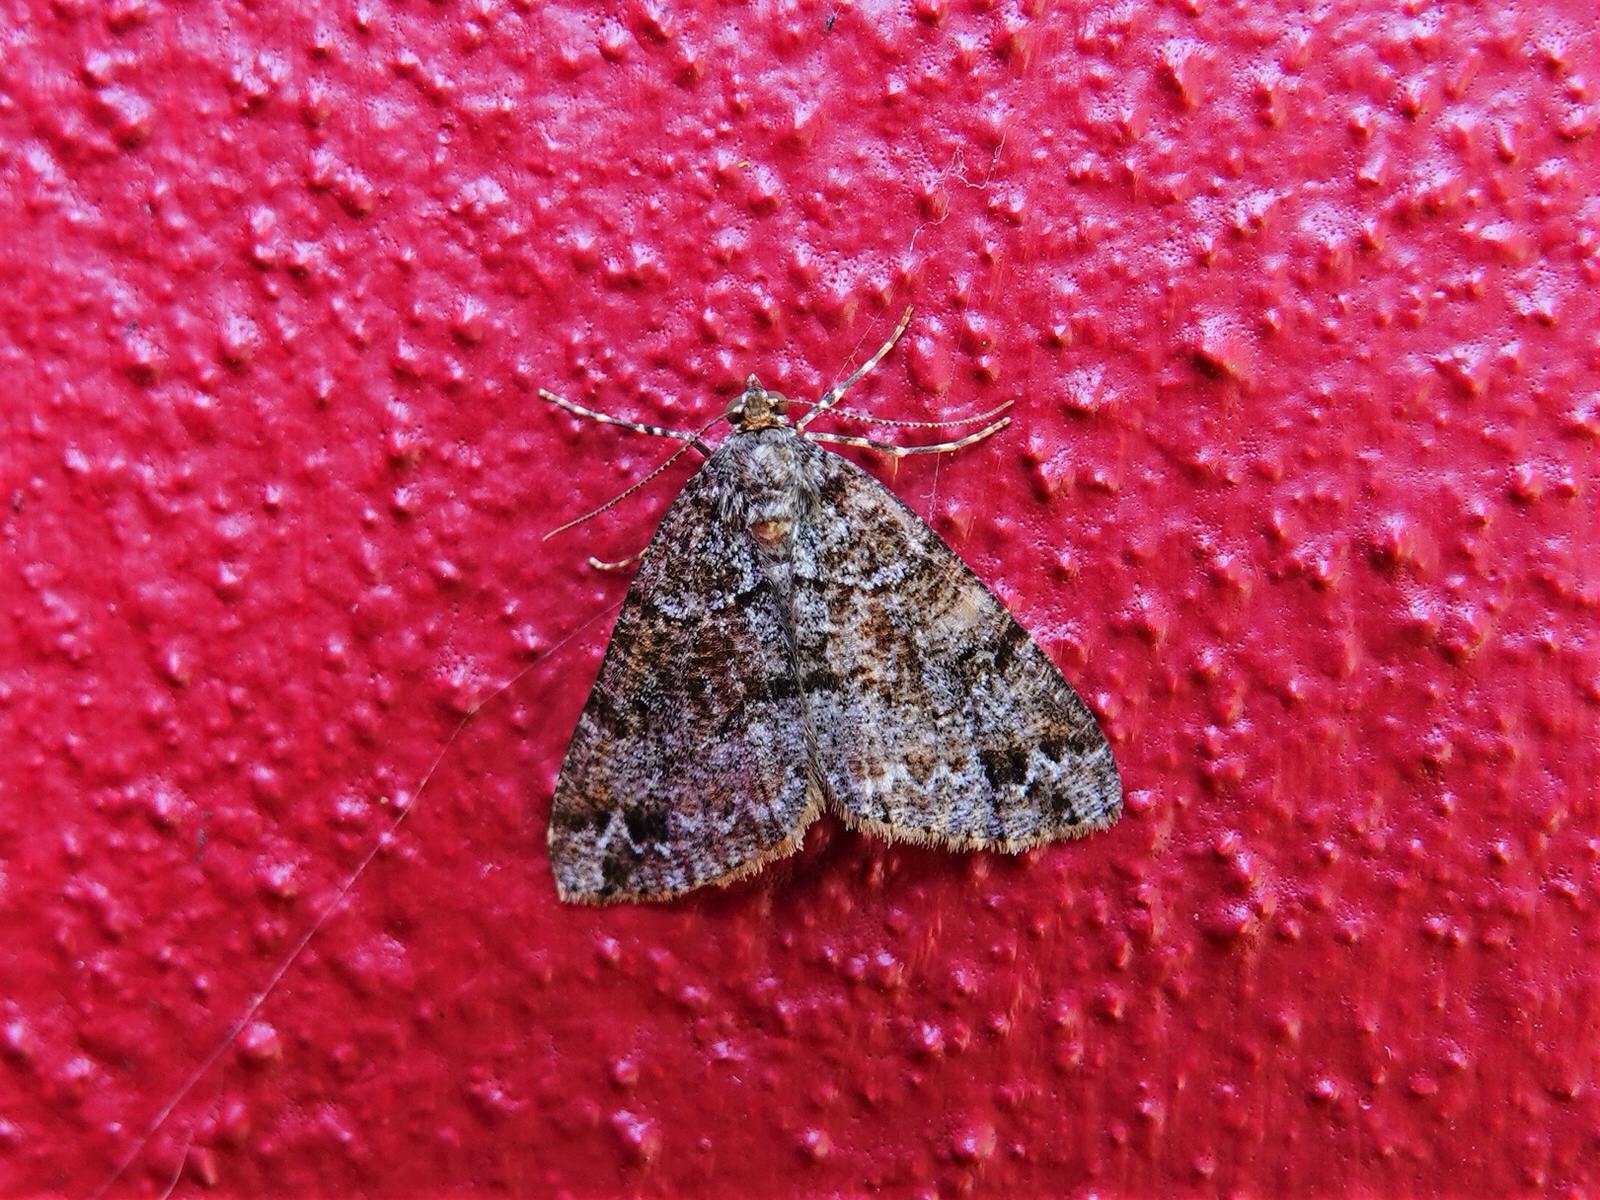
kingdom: Animalia
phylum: Arthropoda
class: Insecta
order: Lepidoptera
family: Geometridae
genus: Pseudocoremia
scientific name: Pseudocoremia productata
